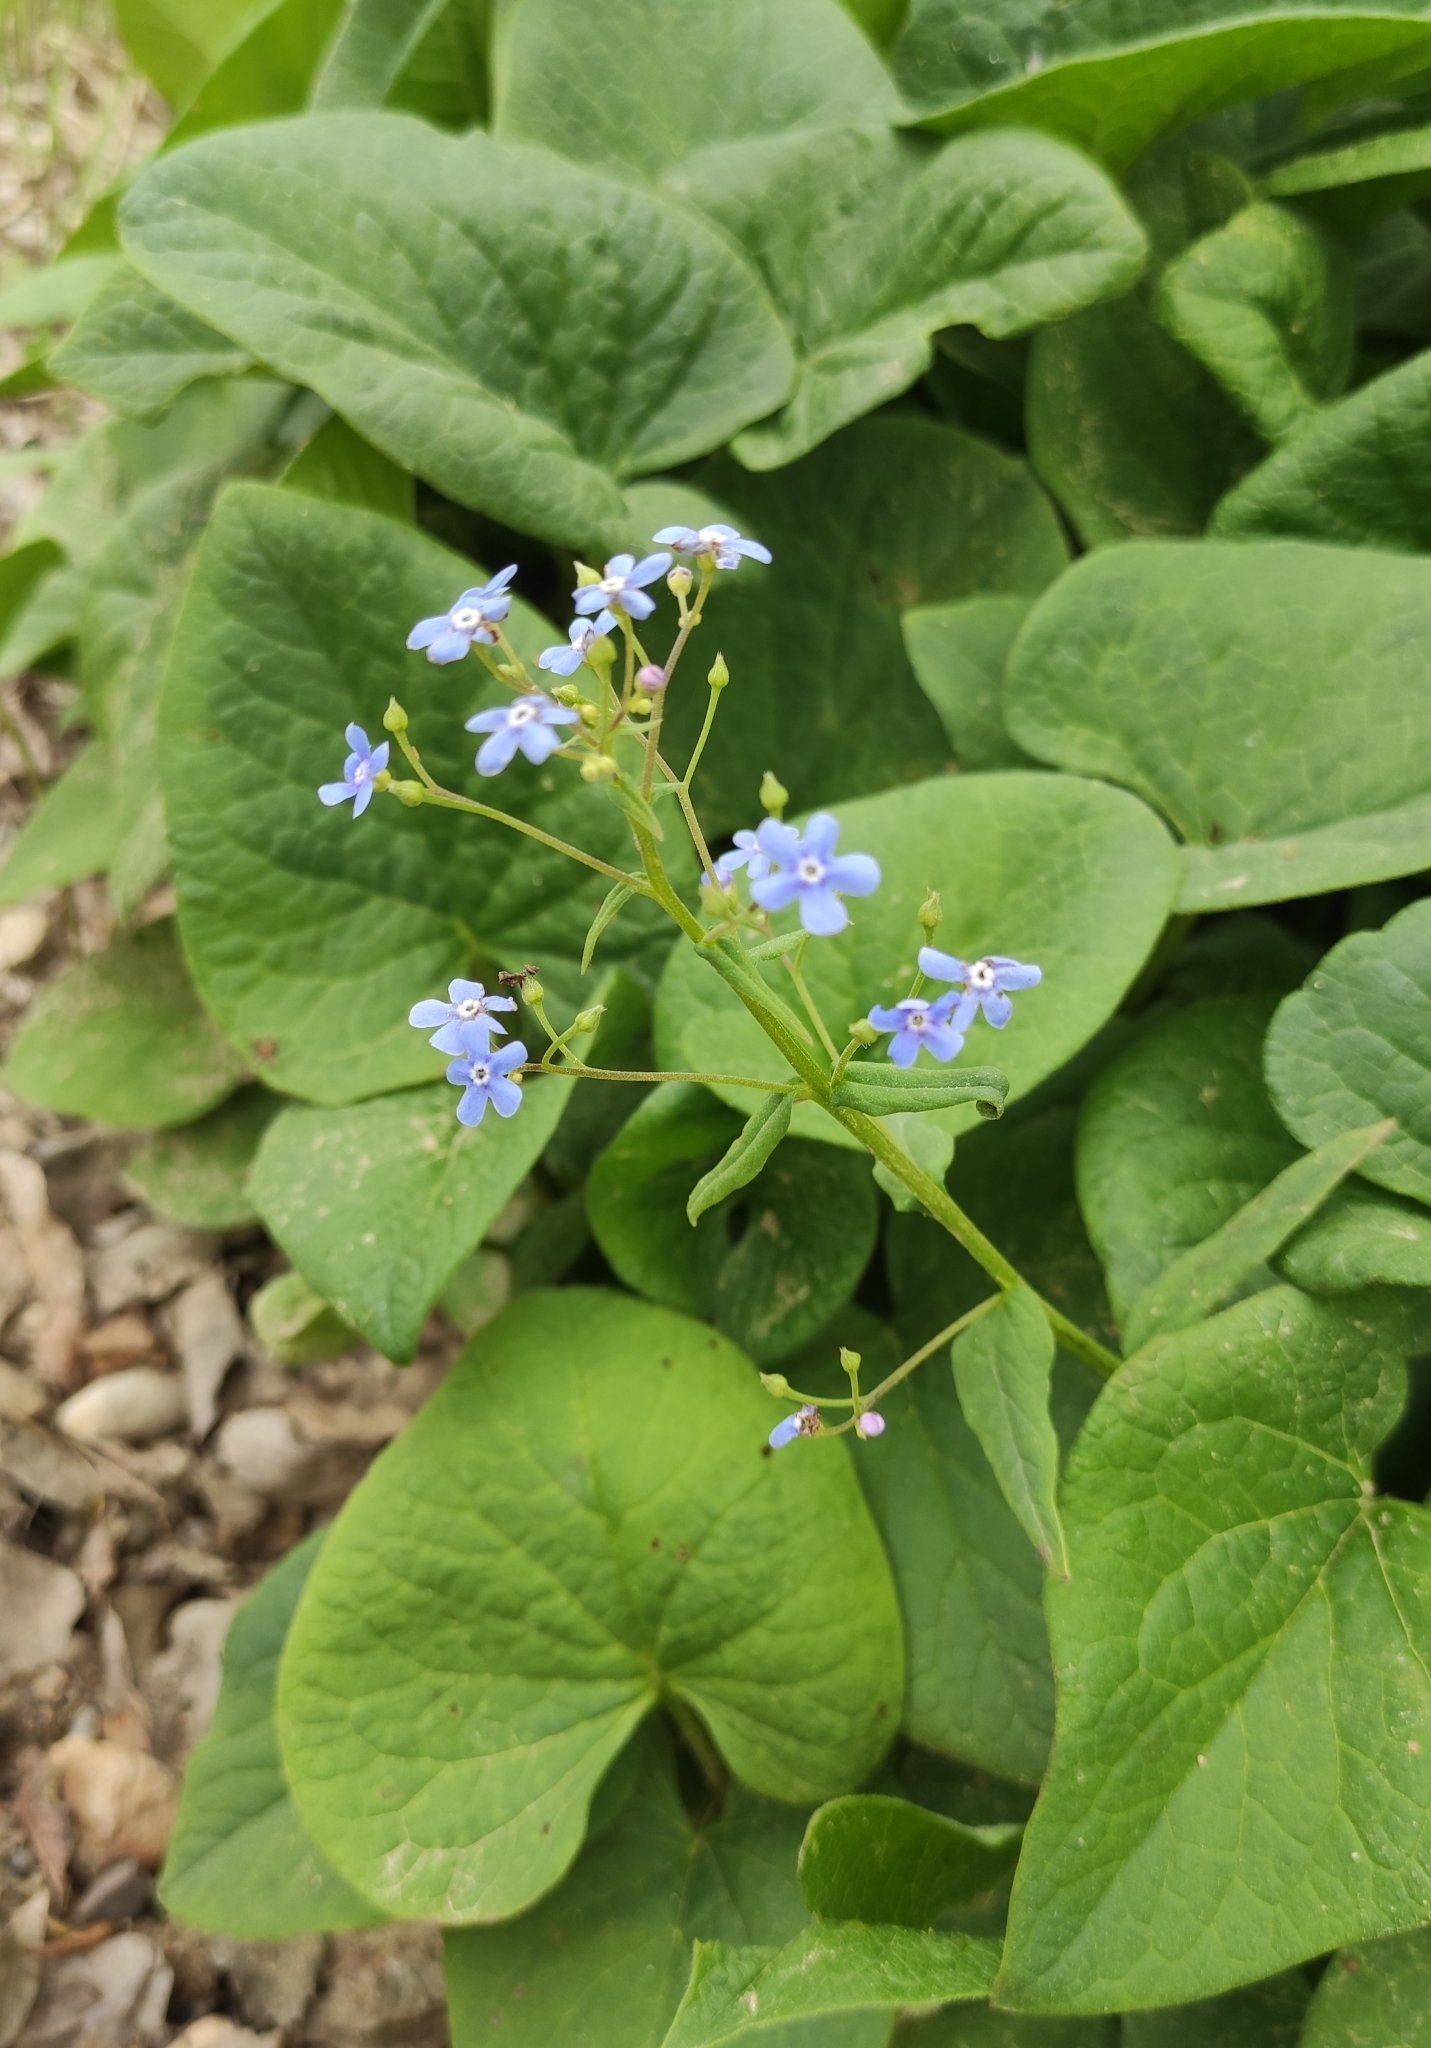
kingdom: Plantae
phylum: Tracheophyta
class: Magnoliopsida
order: Boraginales
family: Boraginaceae
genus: Brunnera
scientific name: Brunnera sibirica
